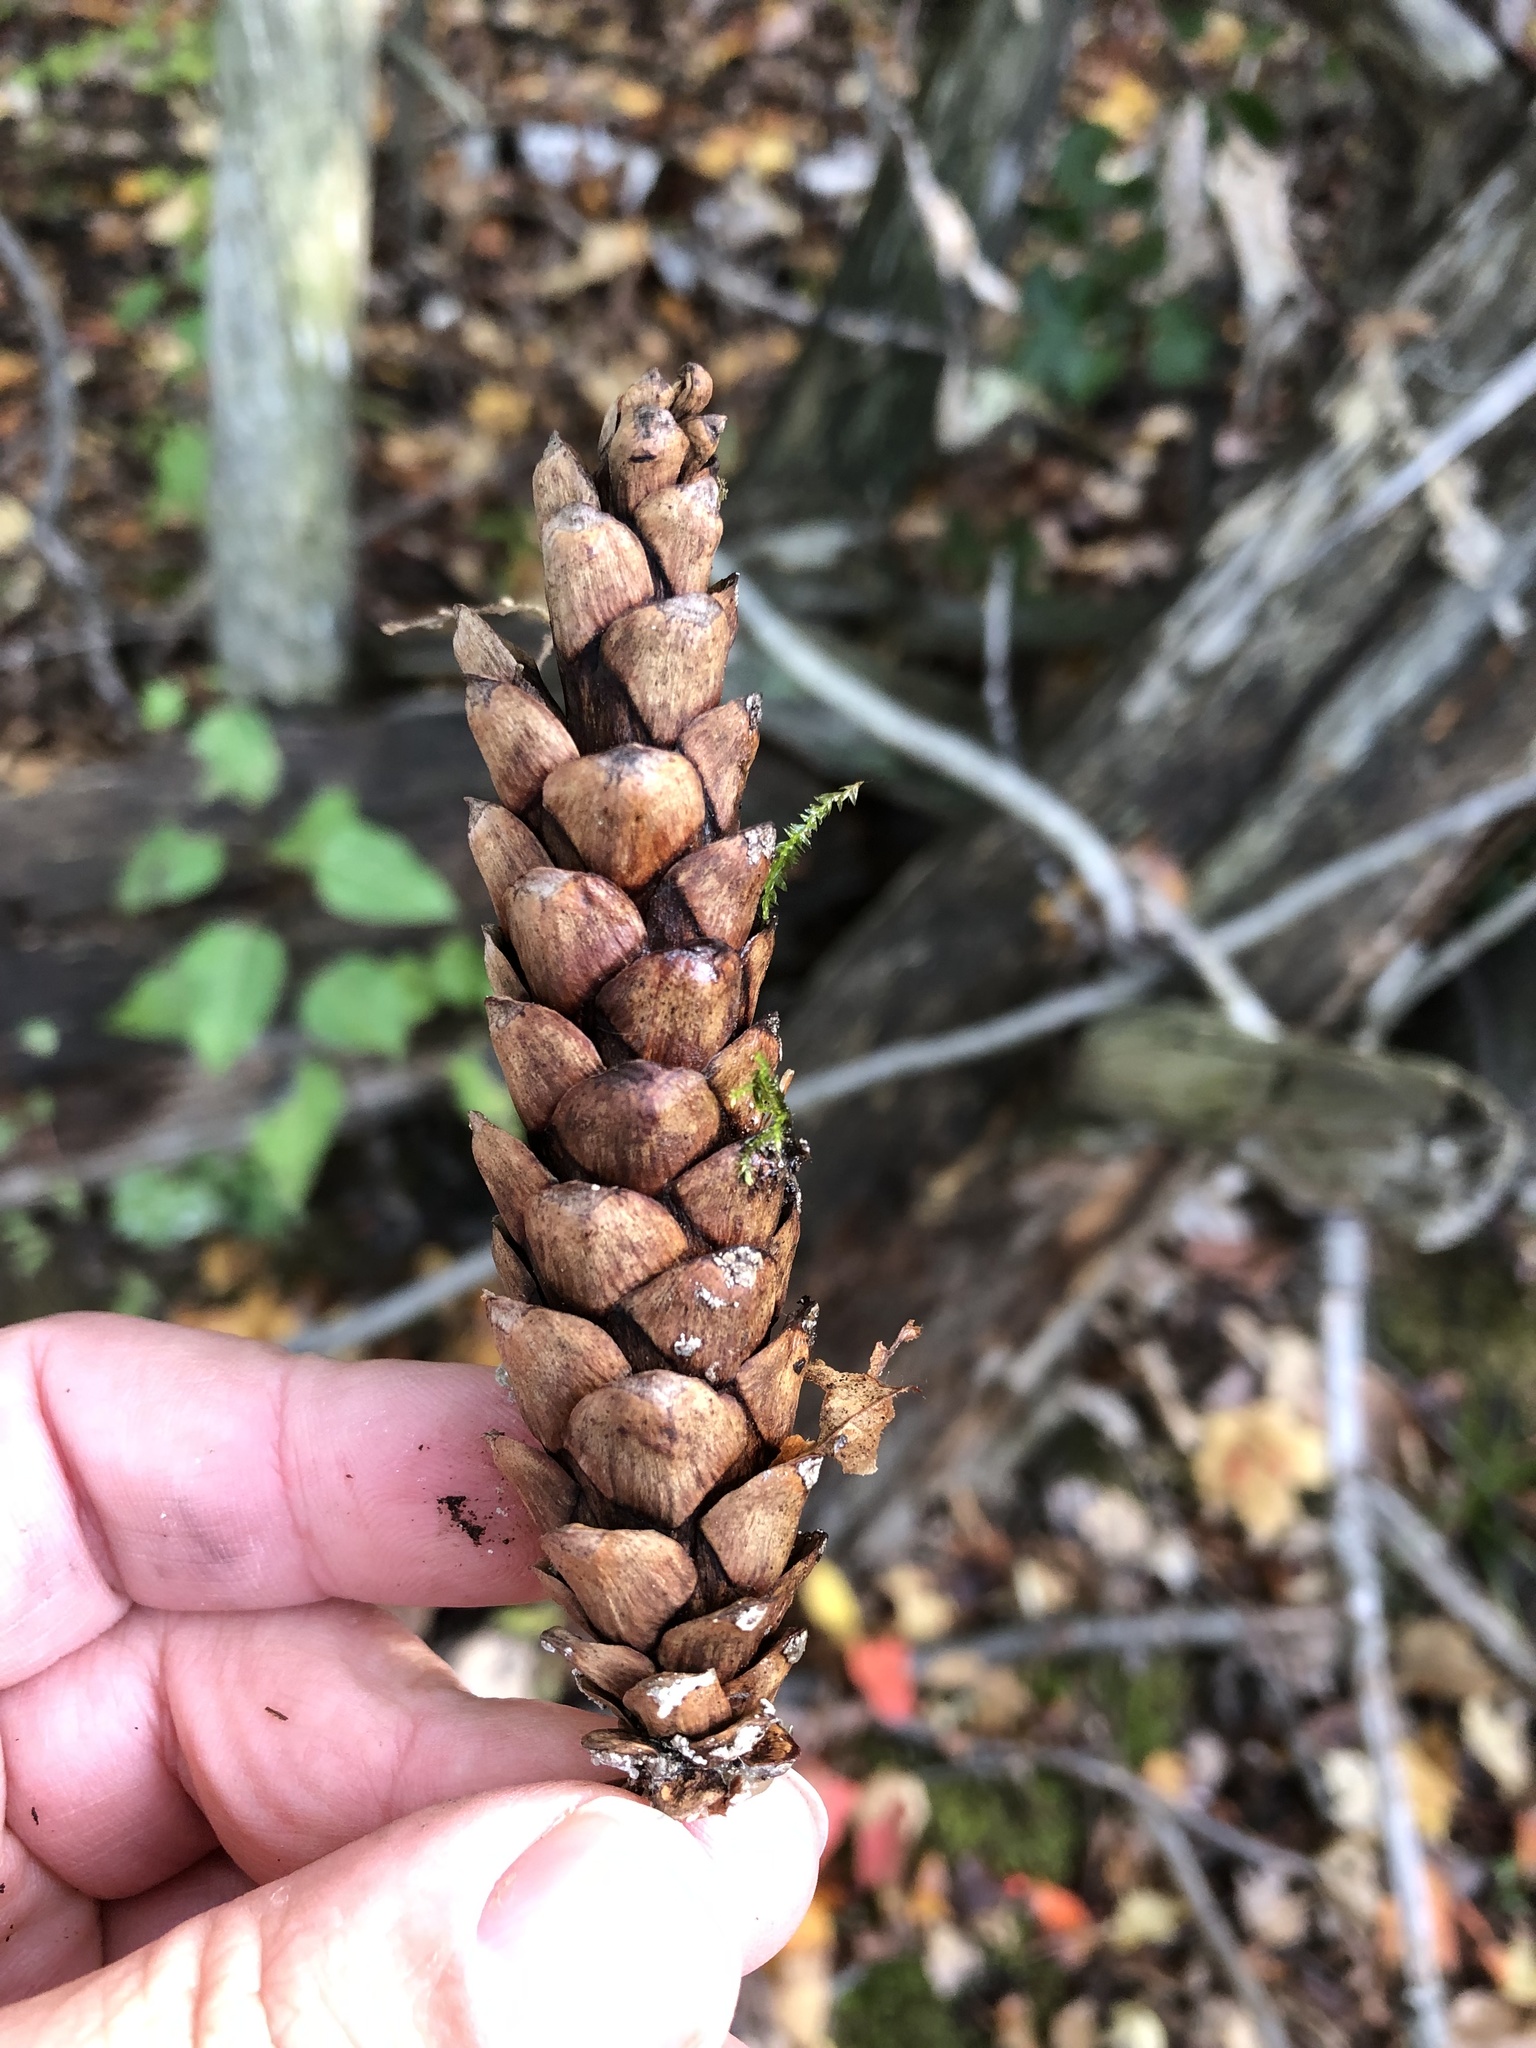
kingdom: Plantae
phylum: Tracheophyta
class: Pinopsida
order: Pinales
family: Pinaceae
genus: Pinus
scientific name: Pinus strobus
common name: Weymouth pine
